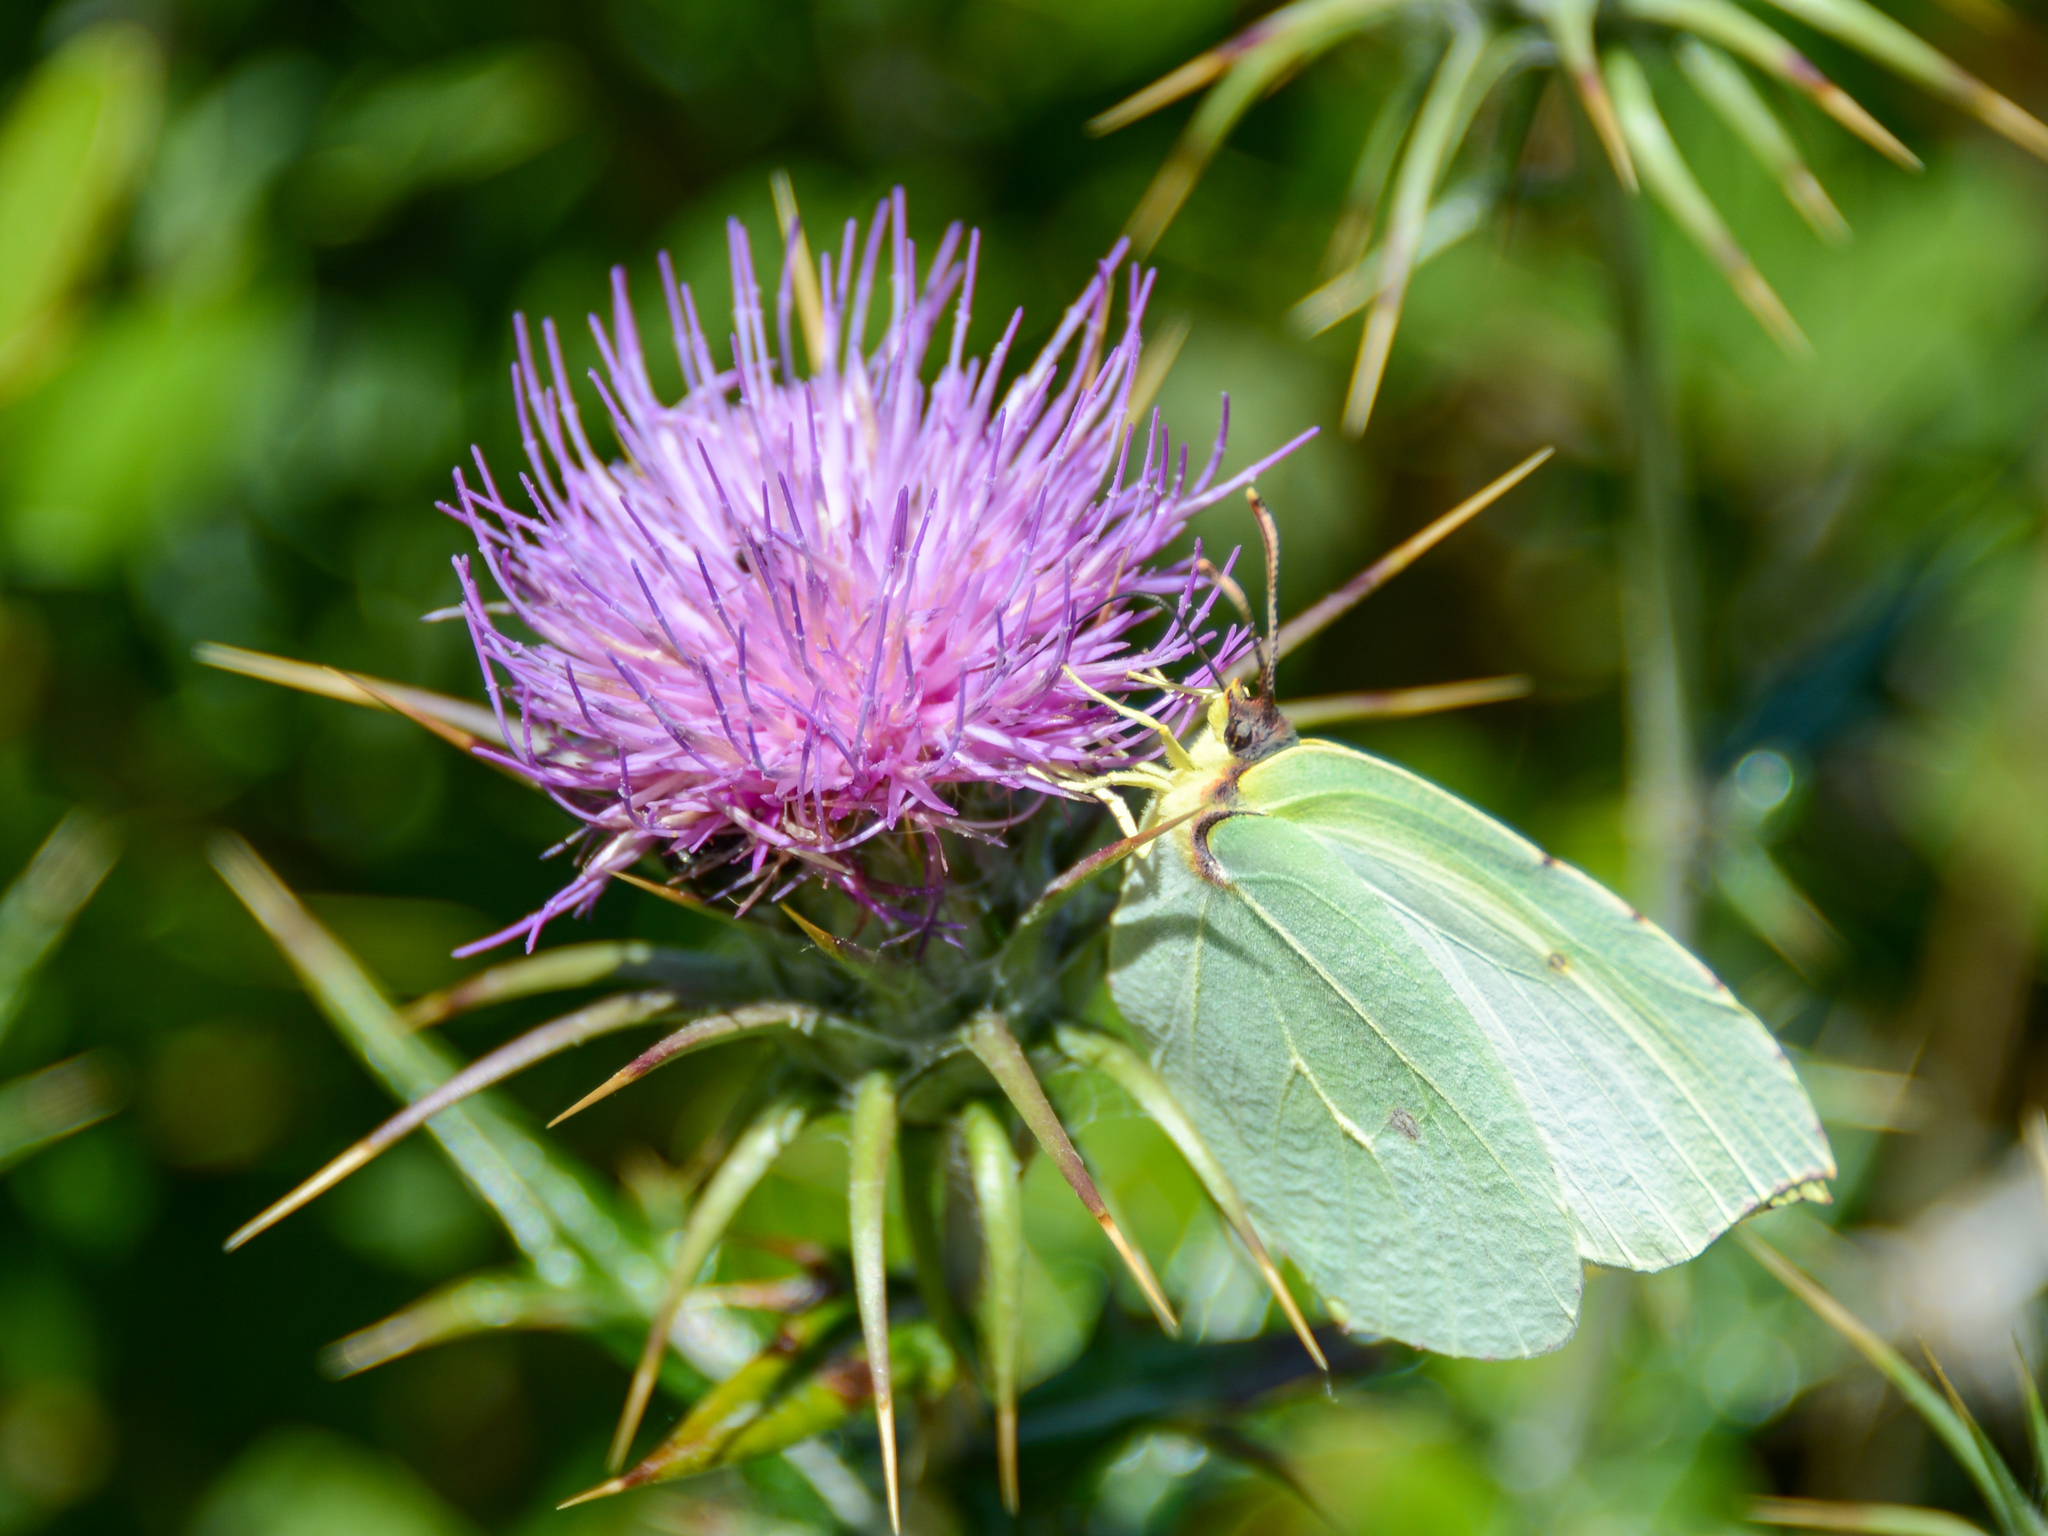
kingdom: Animalia
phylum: Arthropoda
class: Insecta
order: Lepidoptera
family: Pieridae
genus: Gonepteryx
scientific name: Gonepteryx cleopatra
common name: Cleopatra
